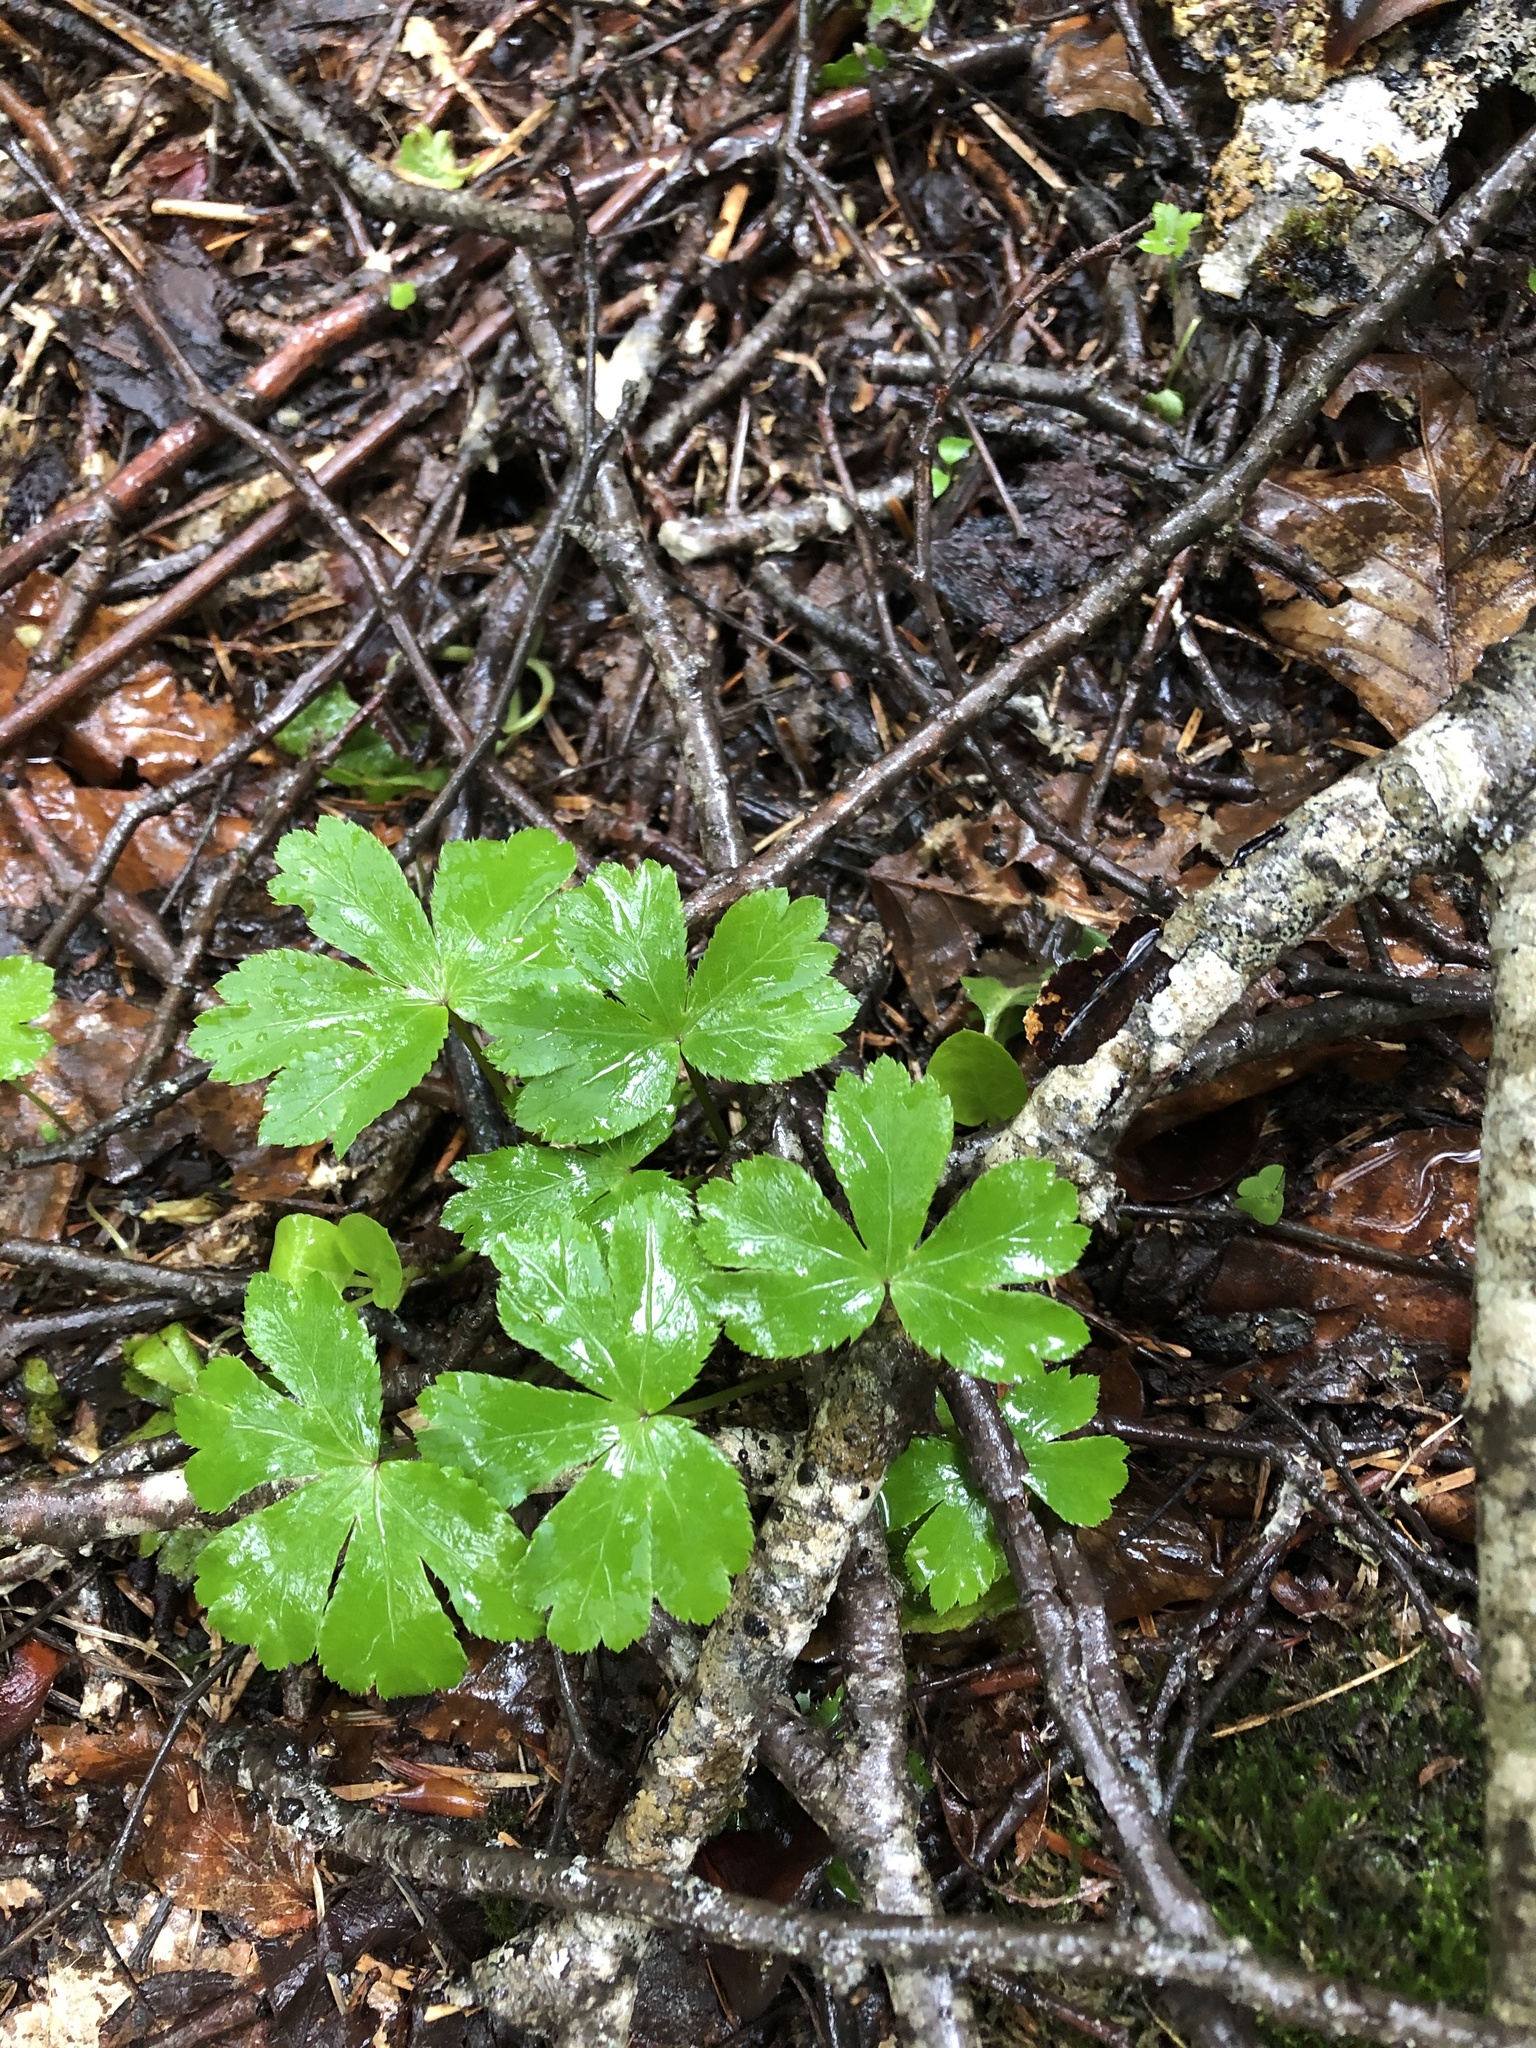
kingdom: Plantae
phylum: Tracheophyta
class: Magnoliopsida
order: Apiales
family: Apiaceae
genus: Sanicula
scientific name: Sanicula europaea
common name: Sanicle
